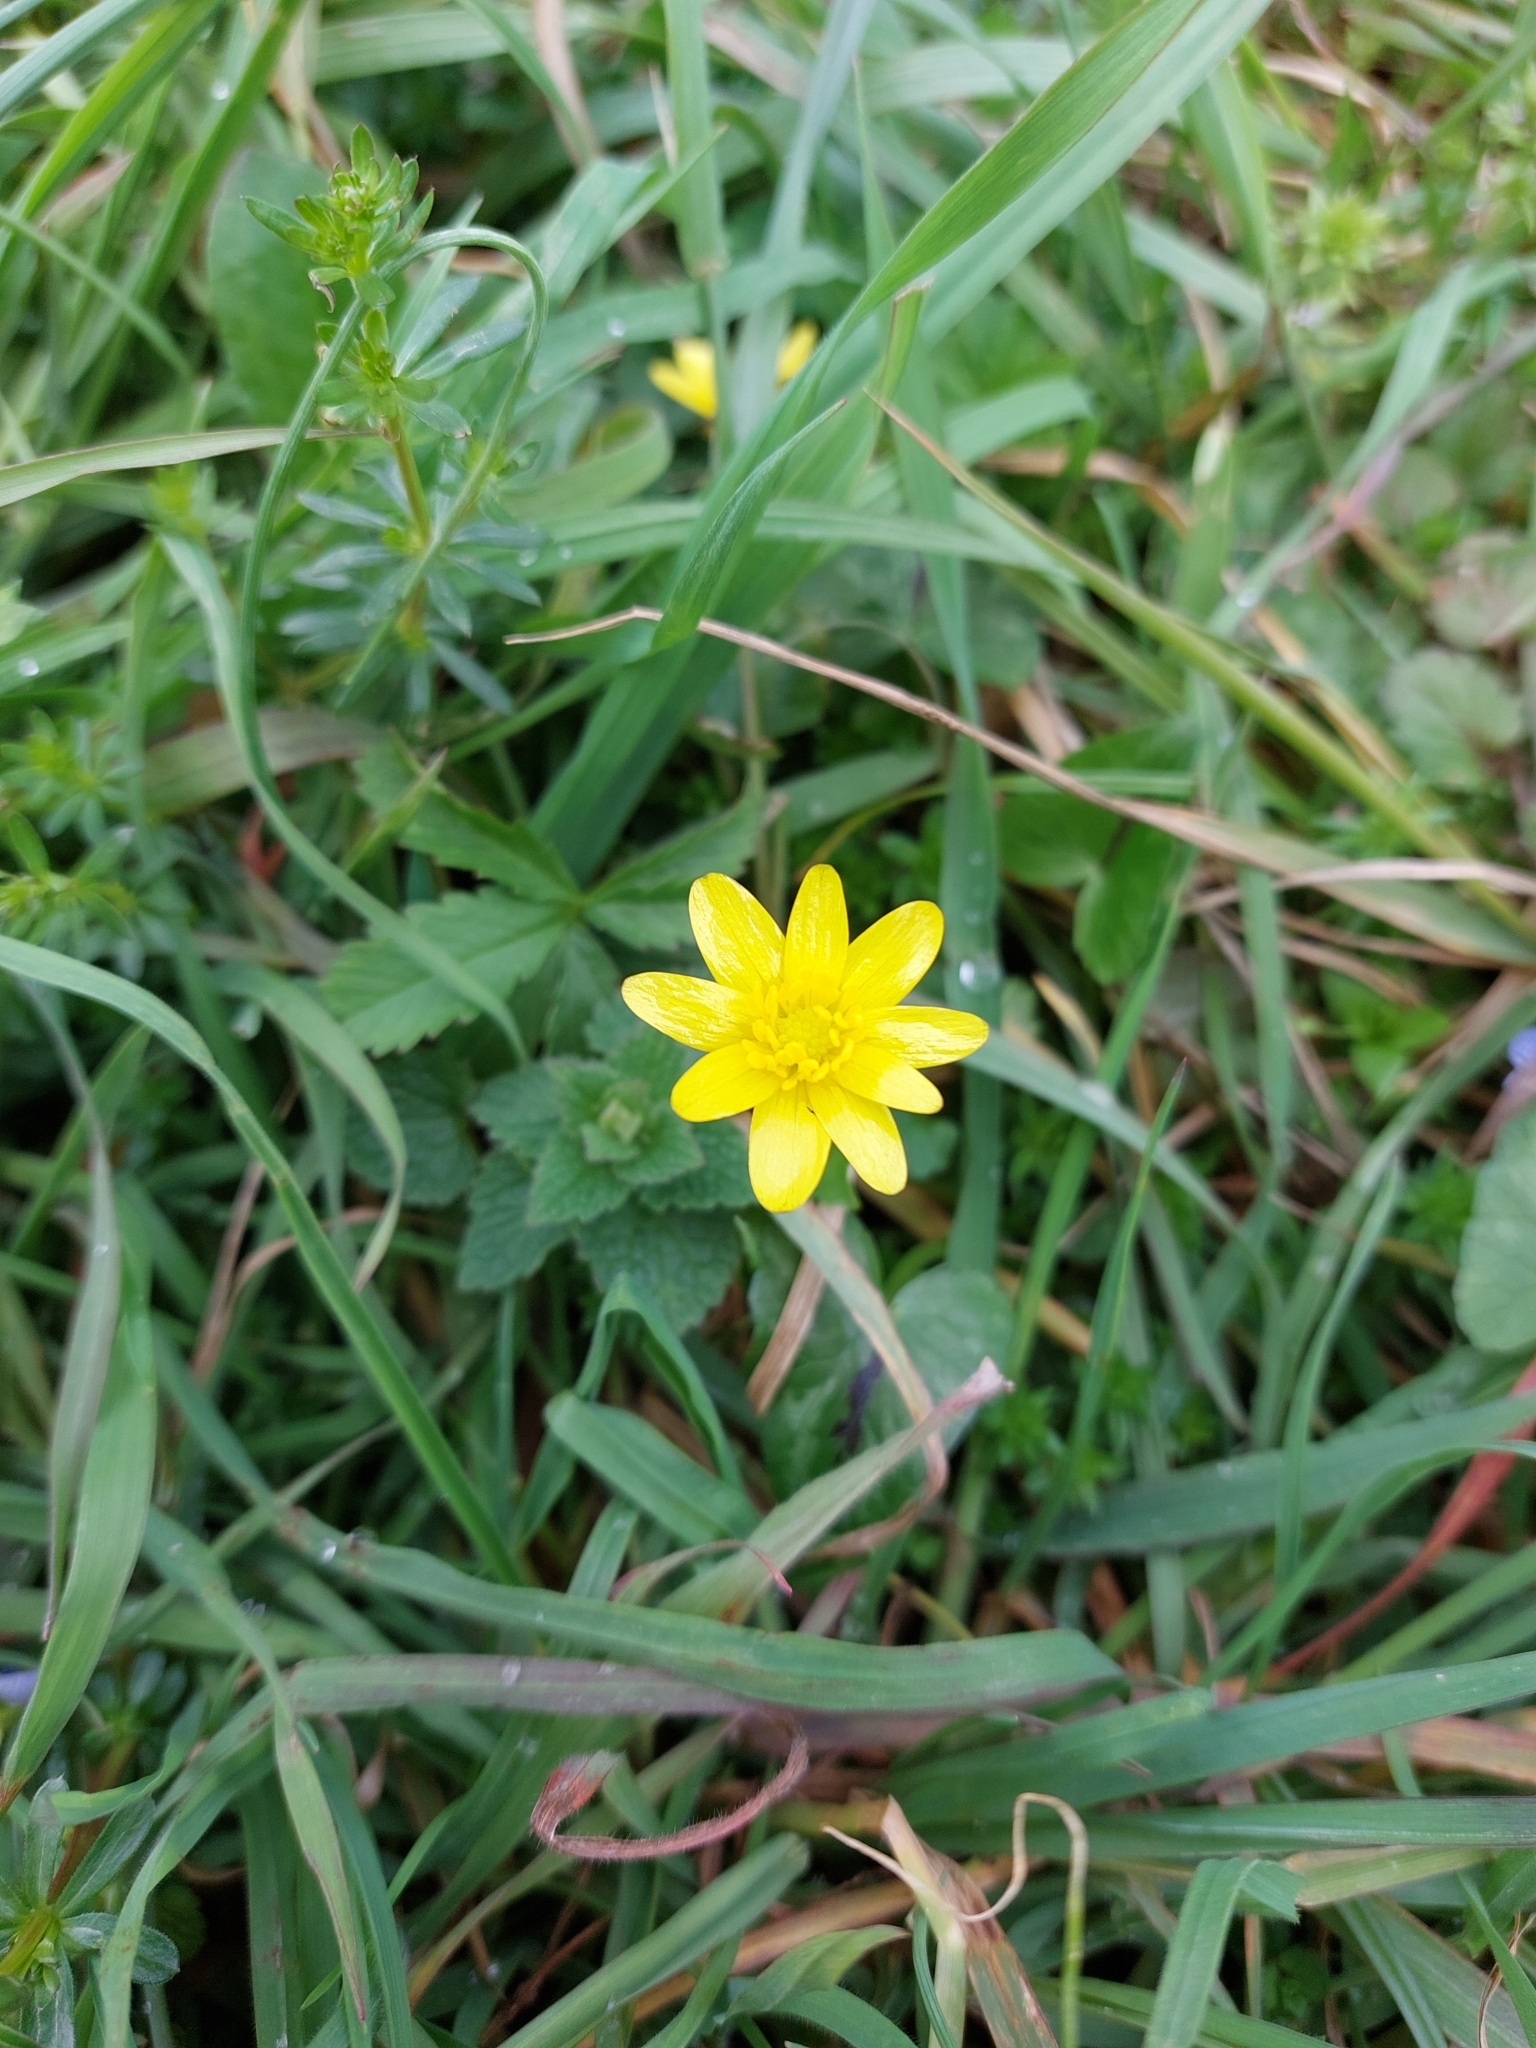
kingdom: Plantae
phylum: Tracheophyta
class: Magnoliopsida
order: Ranunculales
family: Ranunculaceae
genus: Ficaria
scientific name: Ficaria verna
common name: Lesser celandine
